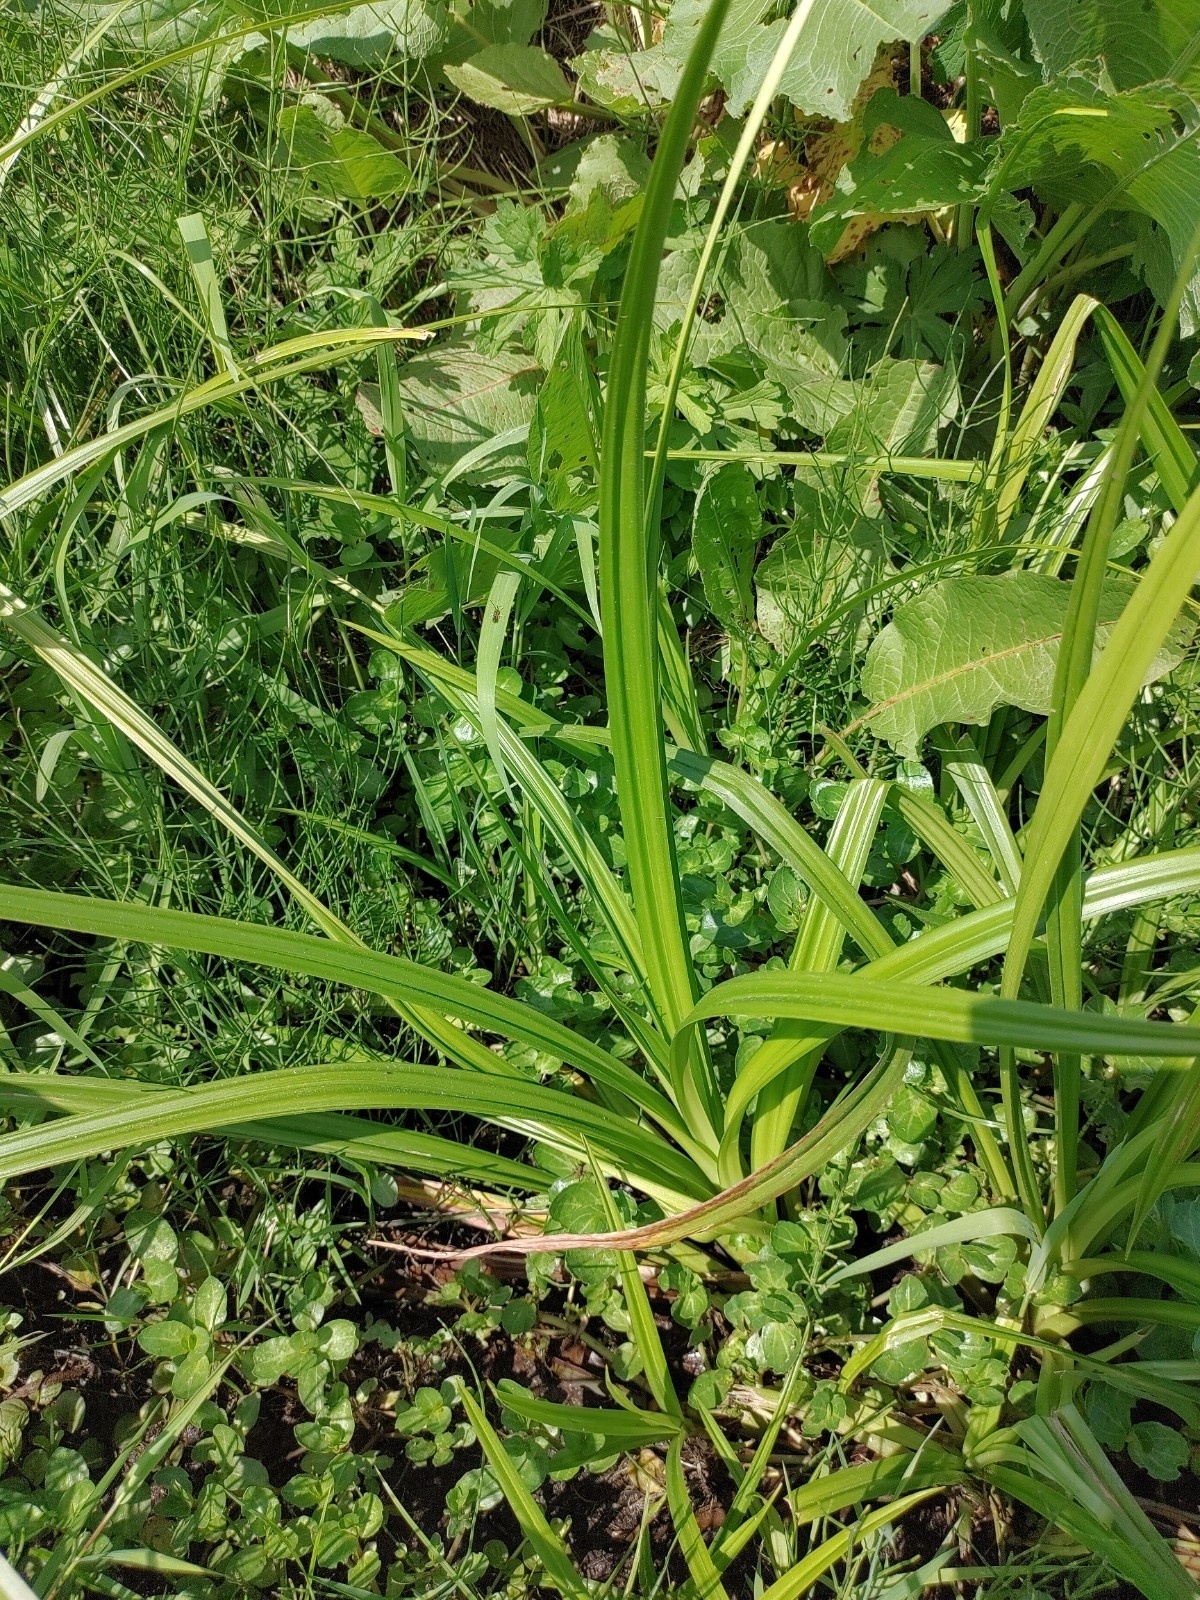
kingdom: Plantae
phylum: Tracheophyta
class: Liliopsida
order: Poales
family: Cyperaceae
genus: Scirpus
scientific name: Scirpus sylvaticus
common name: Wood club-rush
